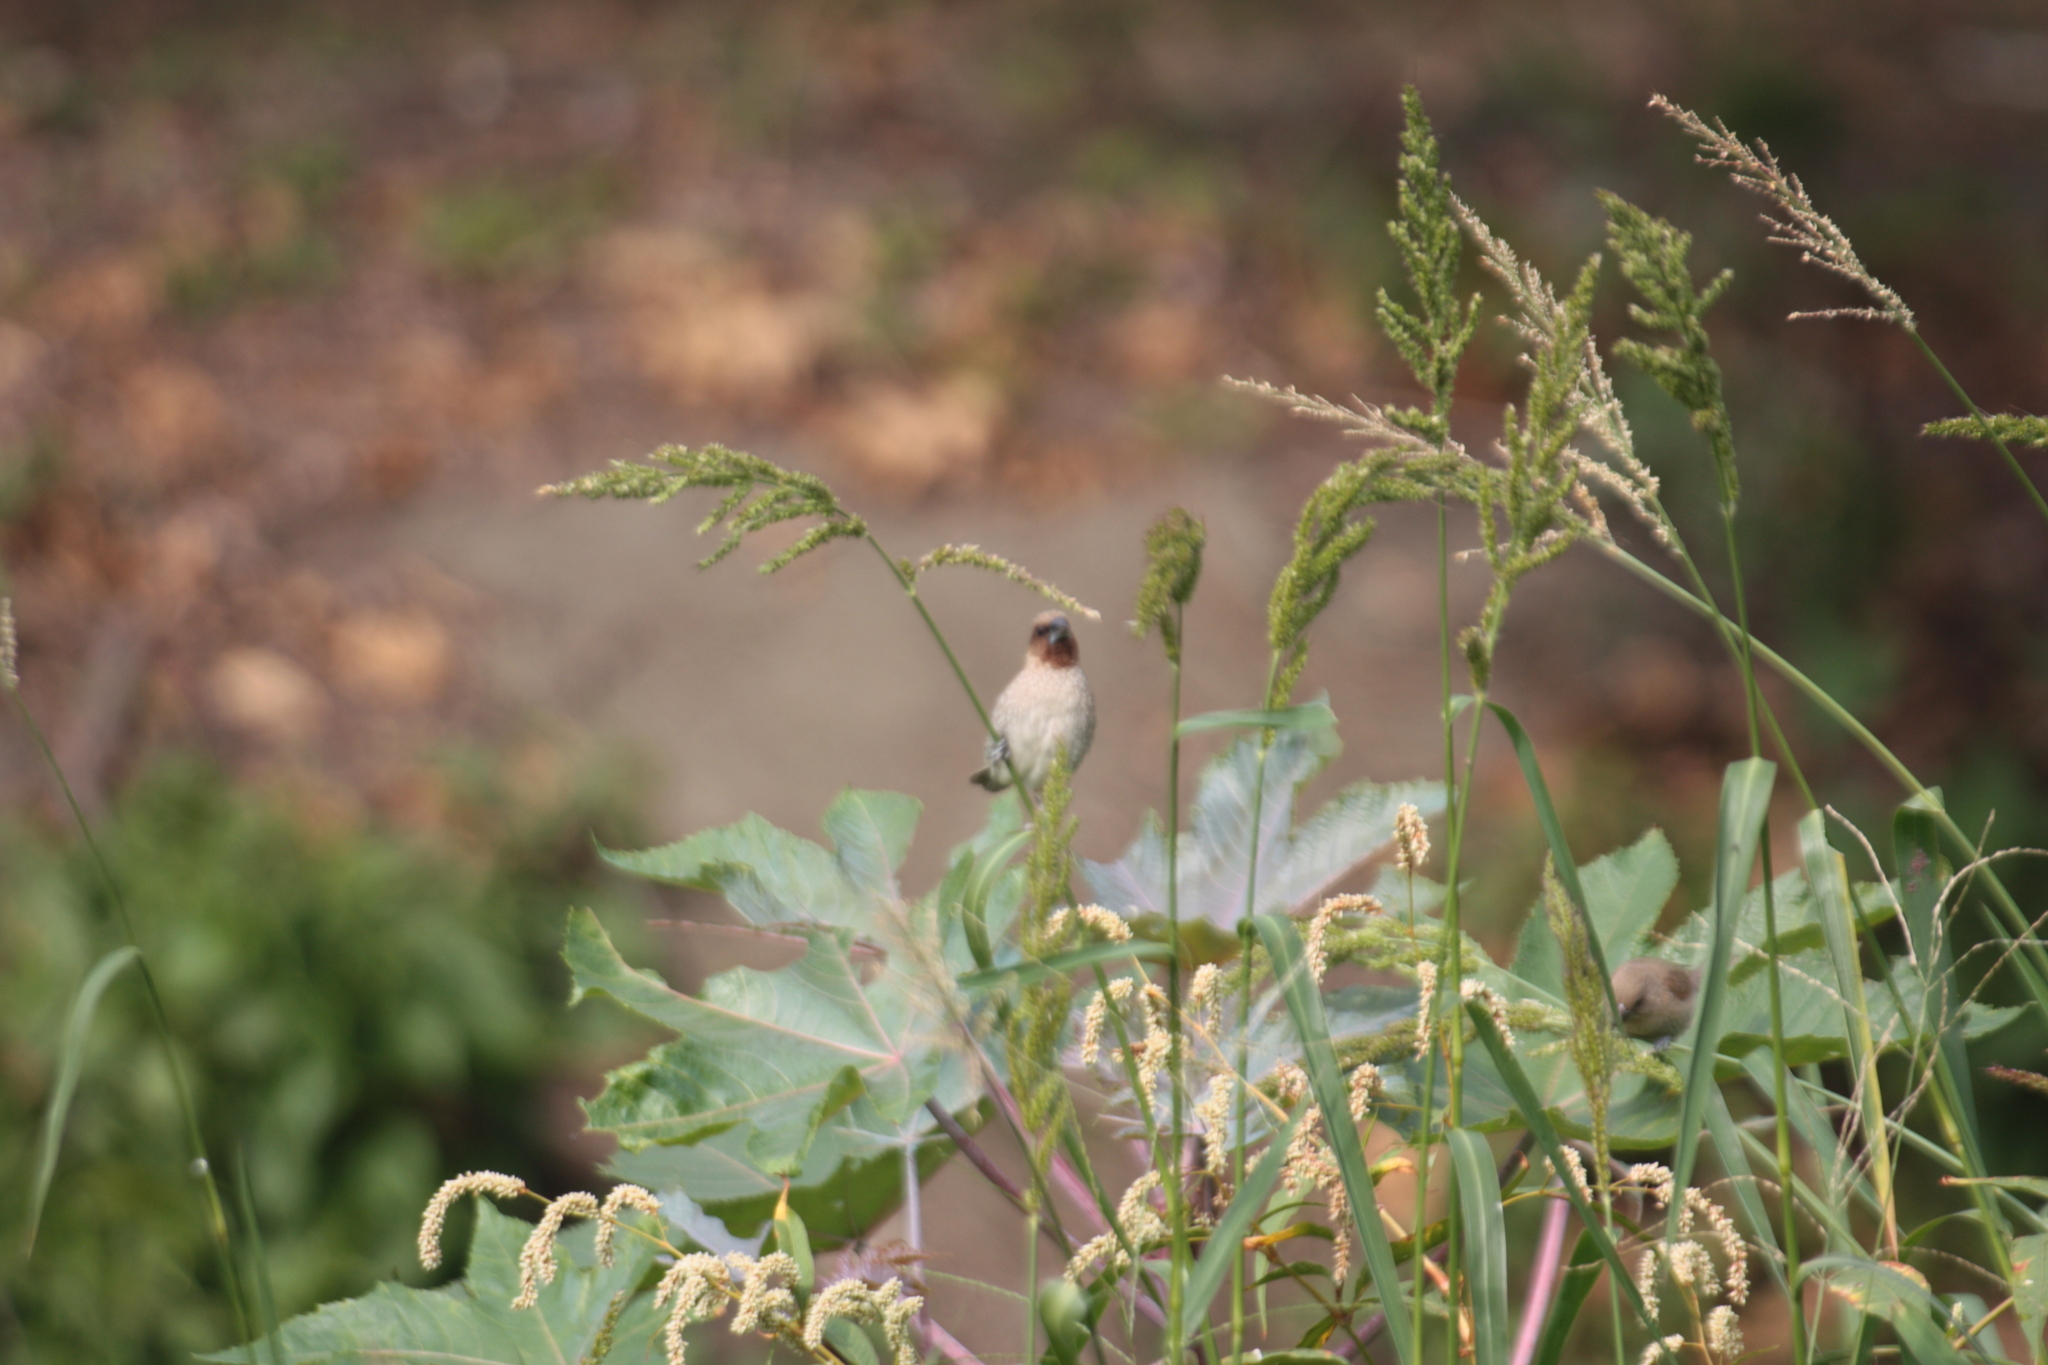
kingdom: Animalia
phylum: Chordata
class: Aves
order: Passeriformes
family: Estrildidae
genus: Lonchura
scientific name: Lonchura punctulata
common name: Scaly-breasted munia
